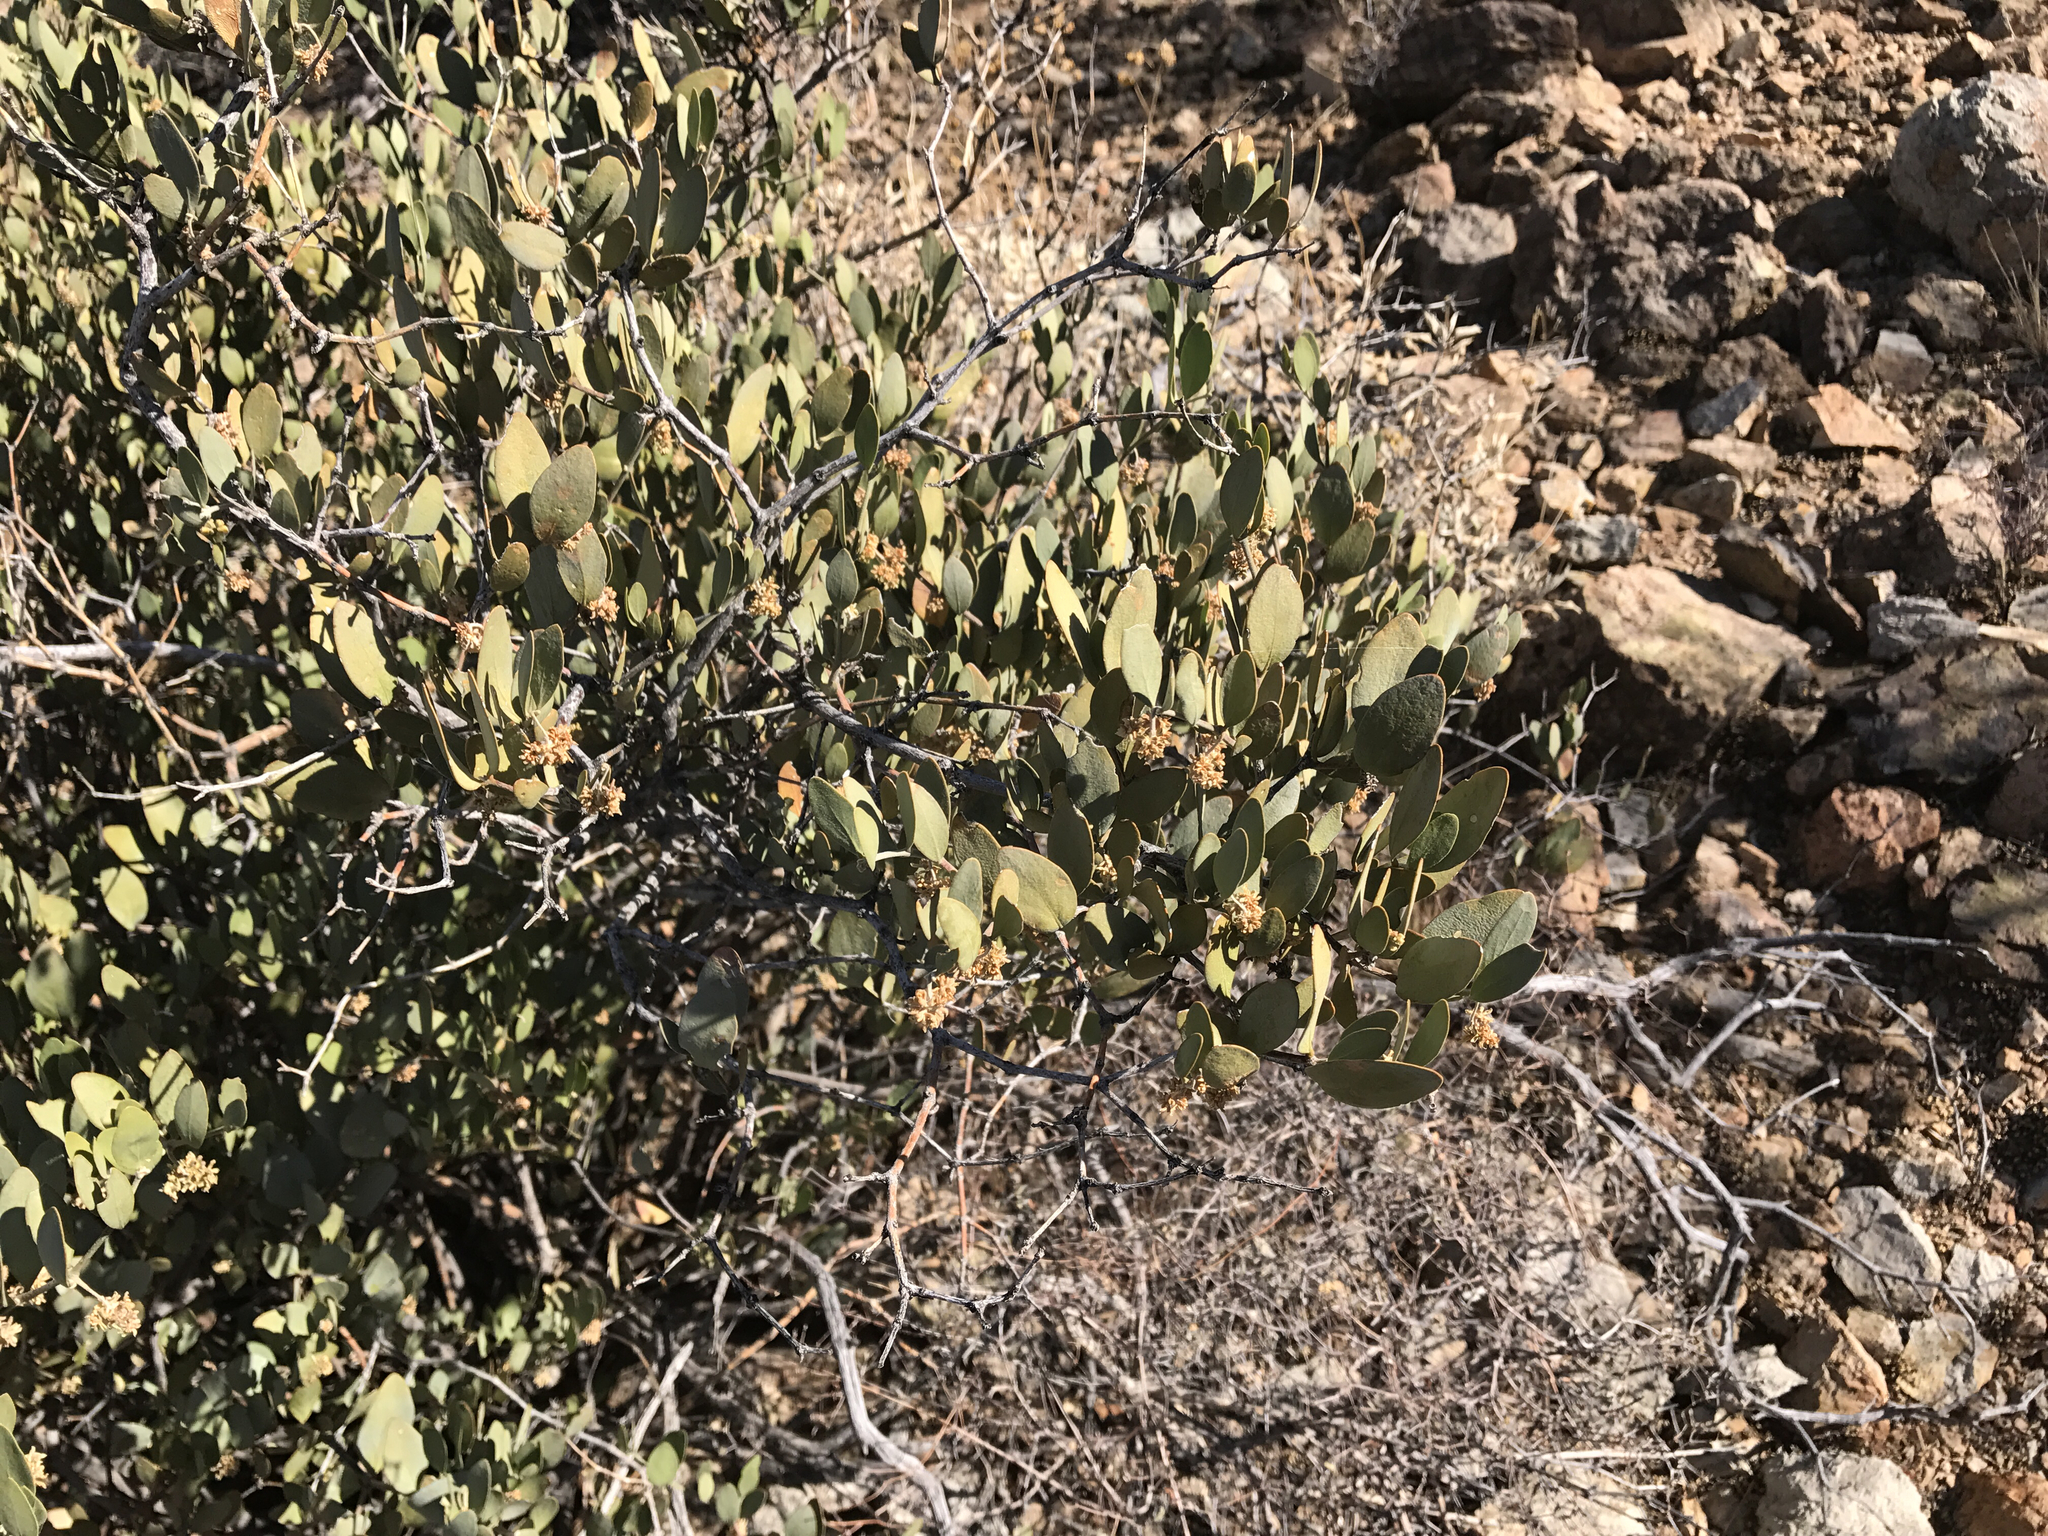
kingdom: Plantae
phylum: Tracheophyta
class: Magnoliopsida
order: Caryophyllales
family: Simmondsiaceae
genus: Simmondsia
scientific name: Simmondsia chinensis
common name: Jojoba
